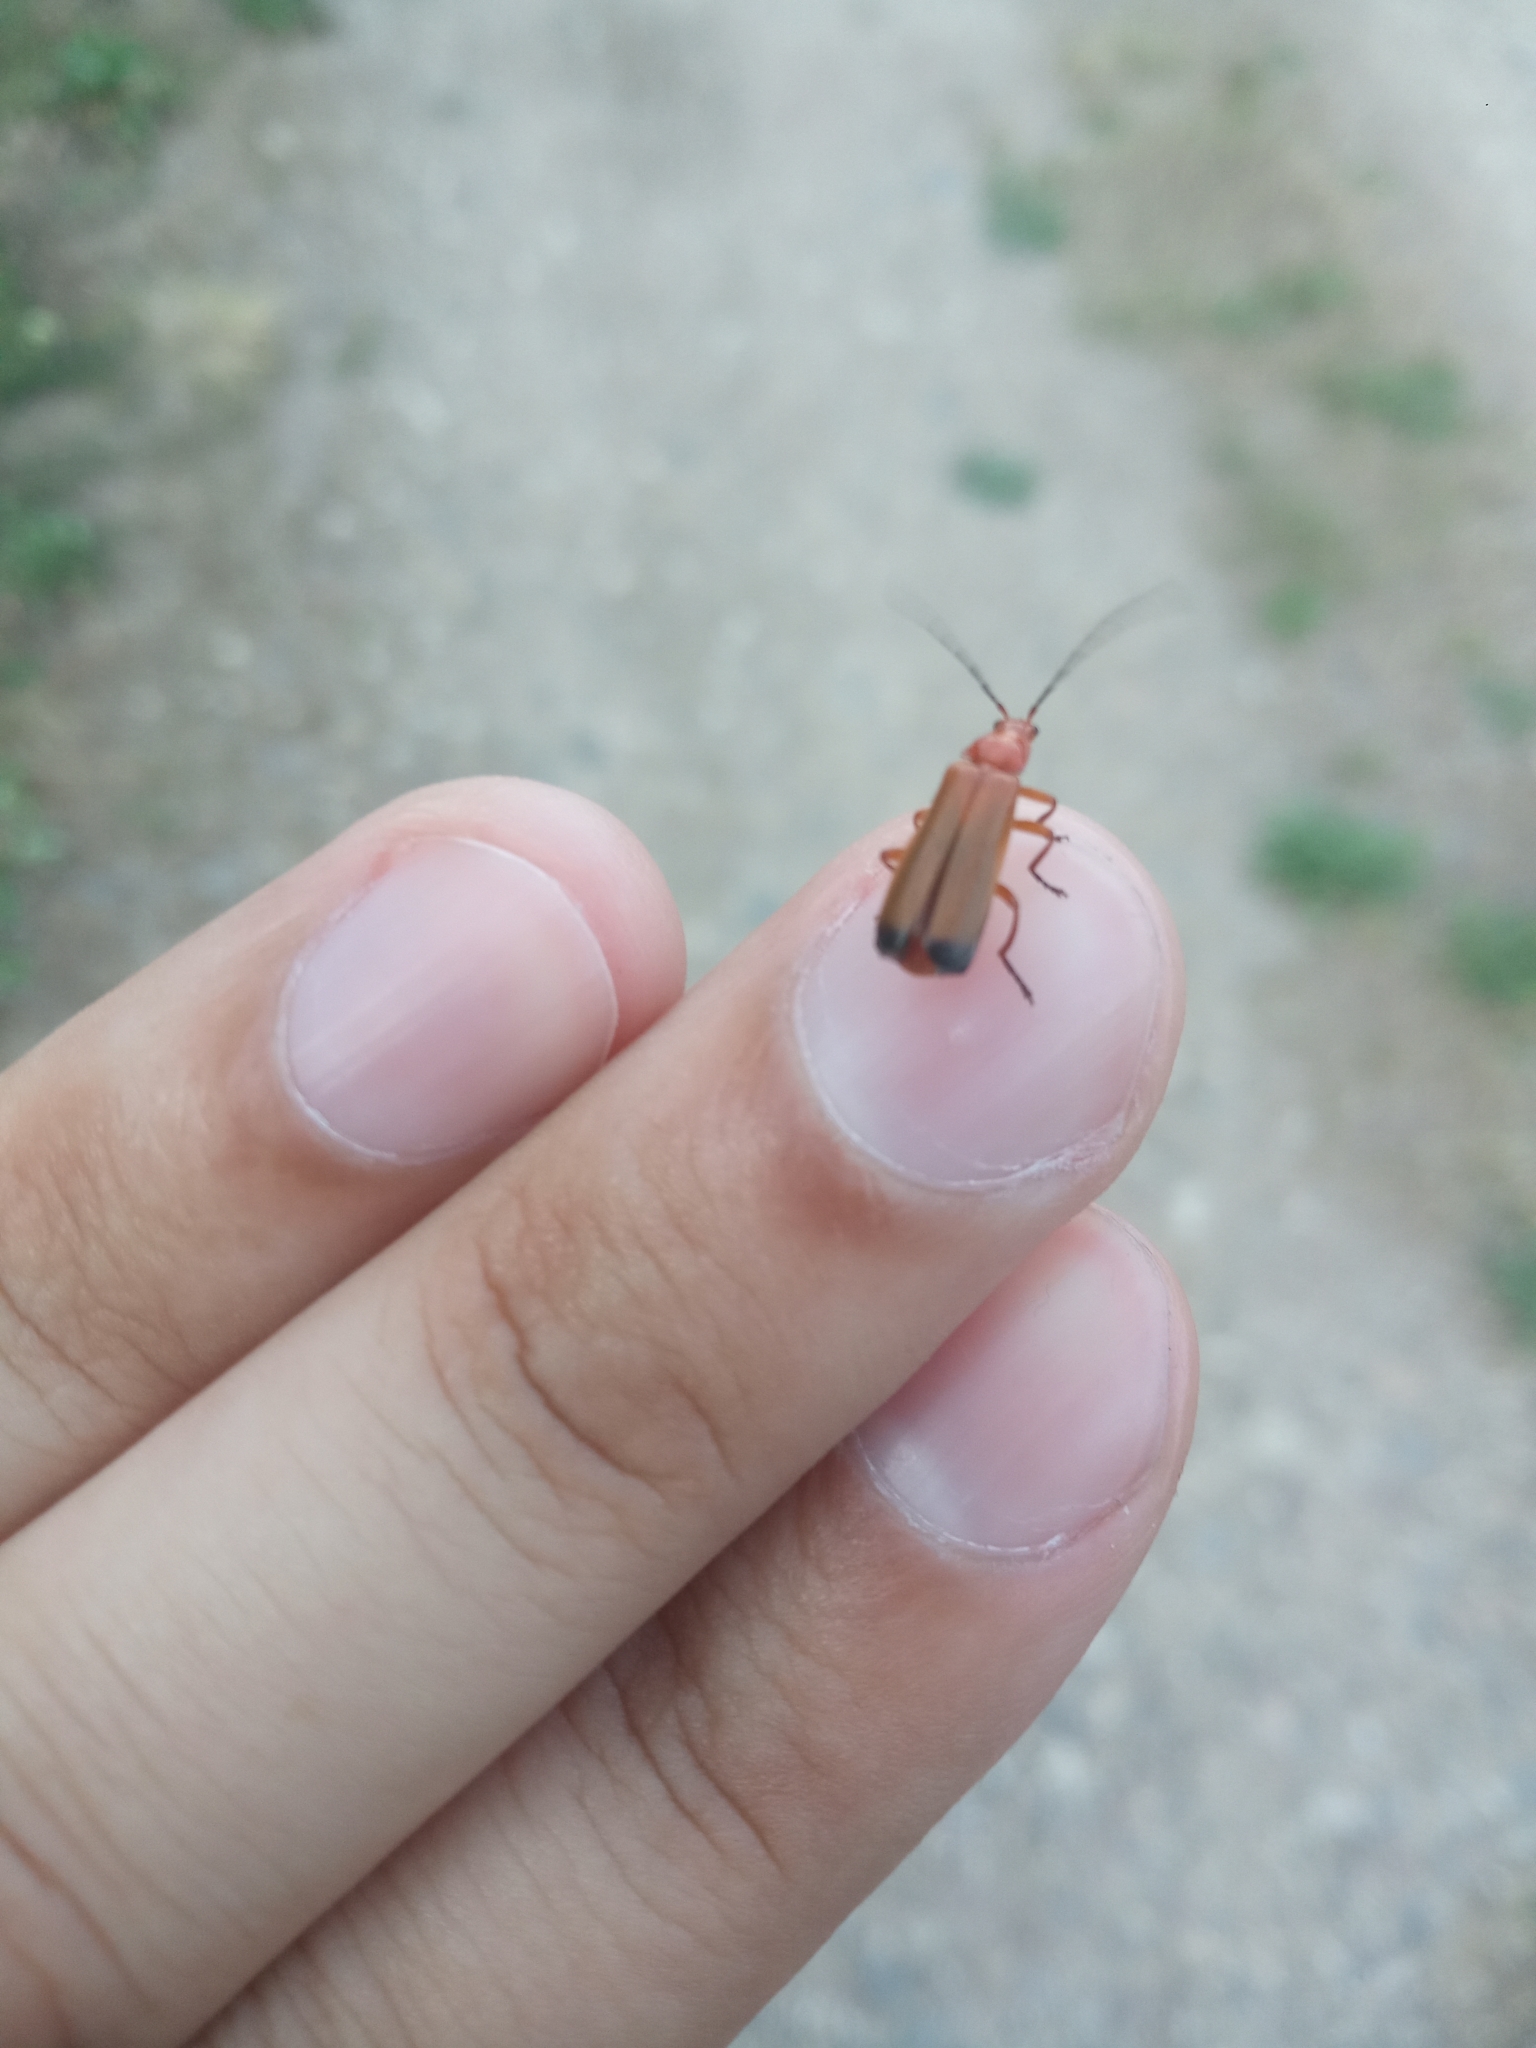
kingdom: Animalia
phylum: Arthropoda
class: Insecta
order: Coleoptera
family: Cantharidae
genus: Rhagonycha
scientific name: Rhagonycha fulva
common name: Common red soldier beetle
